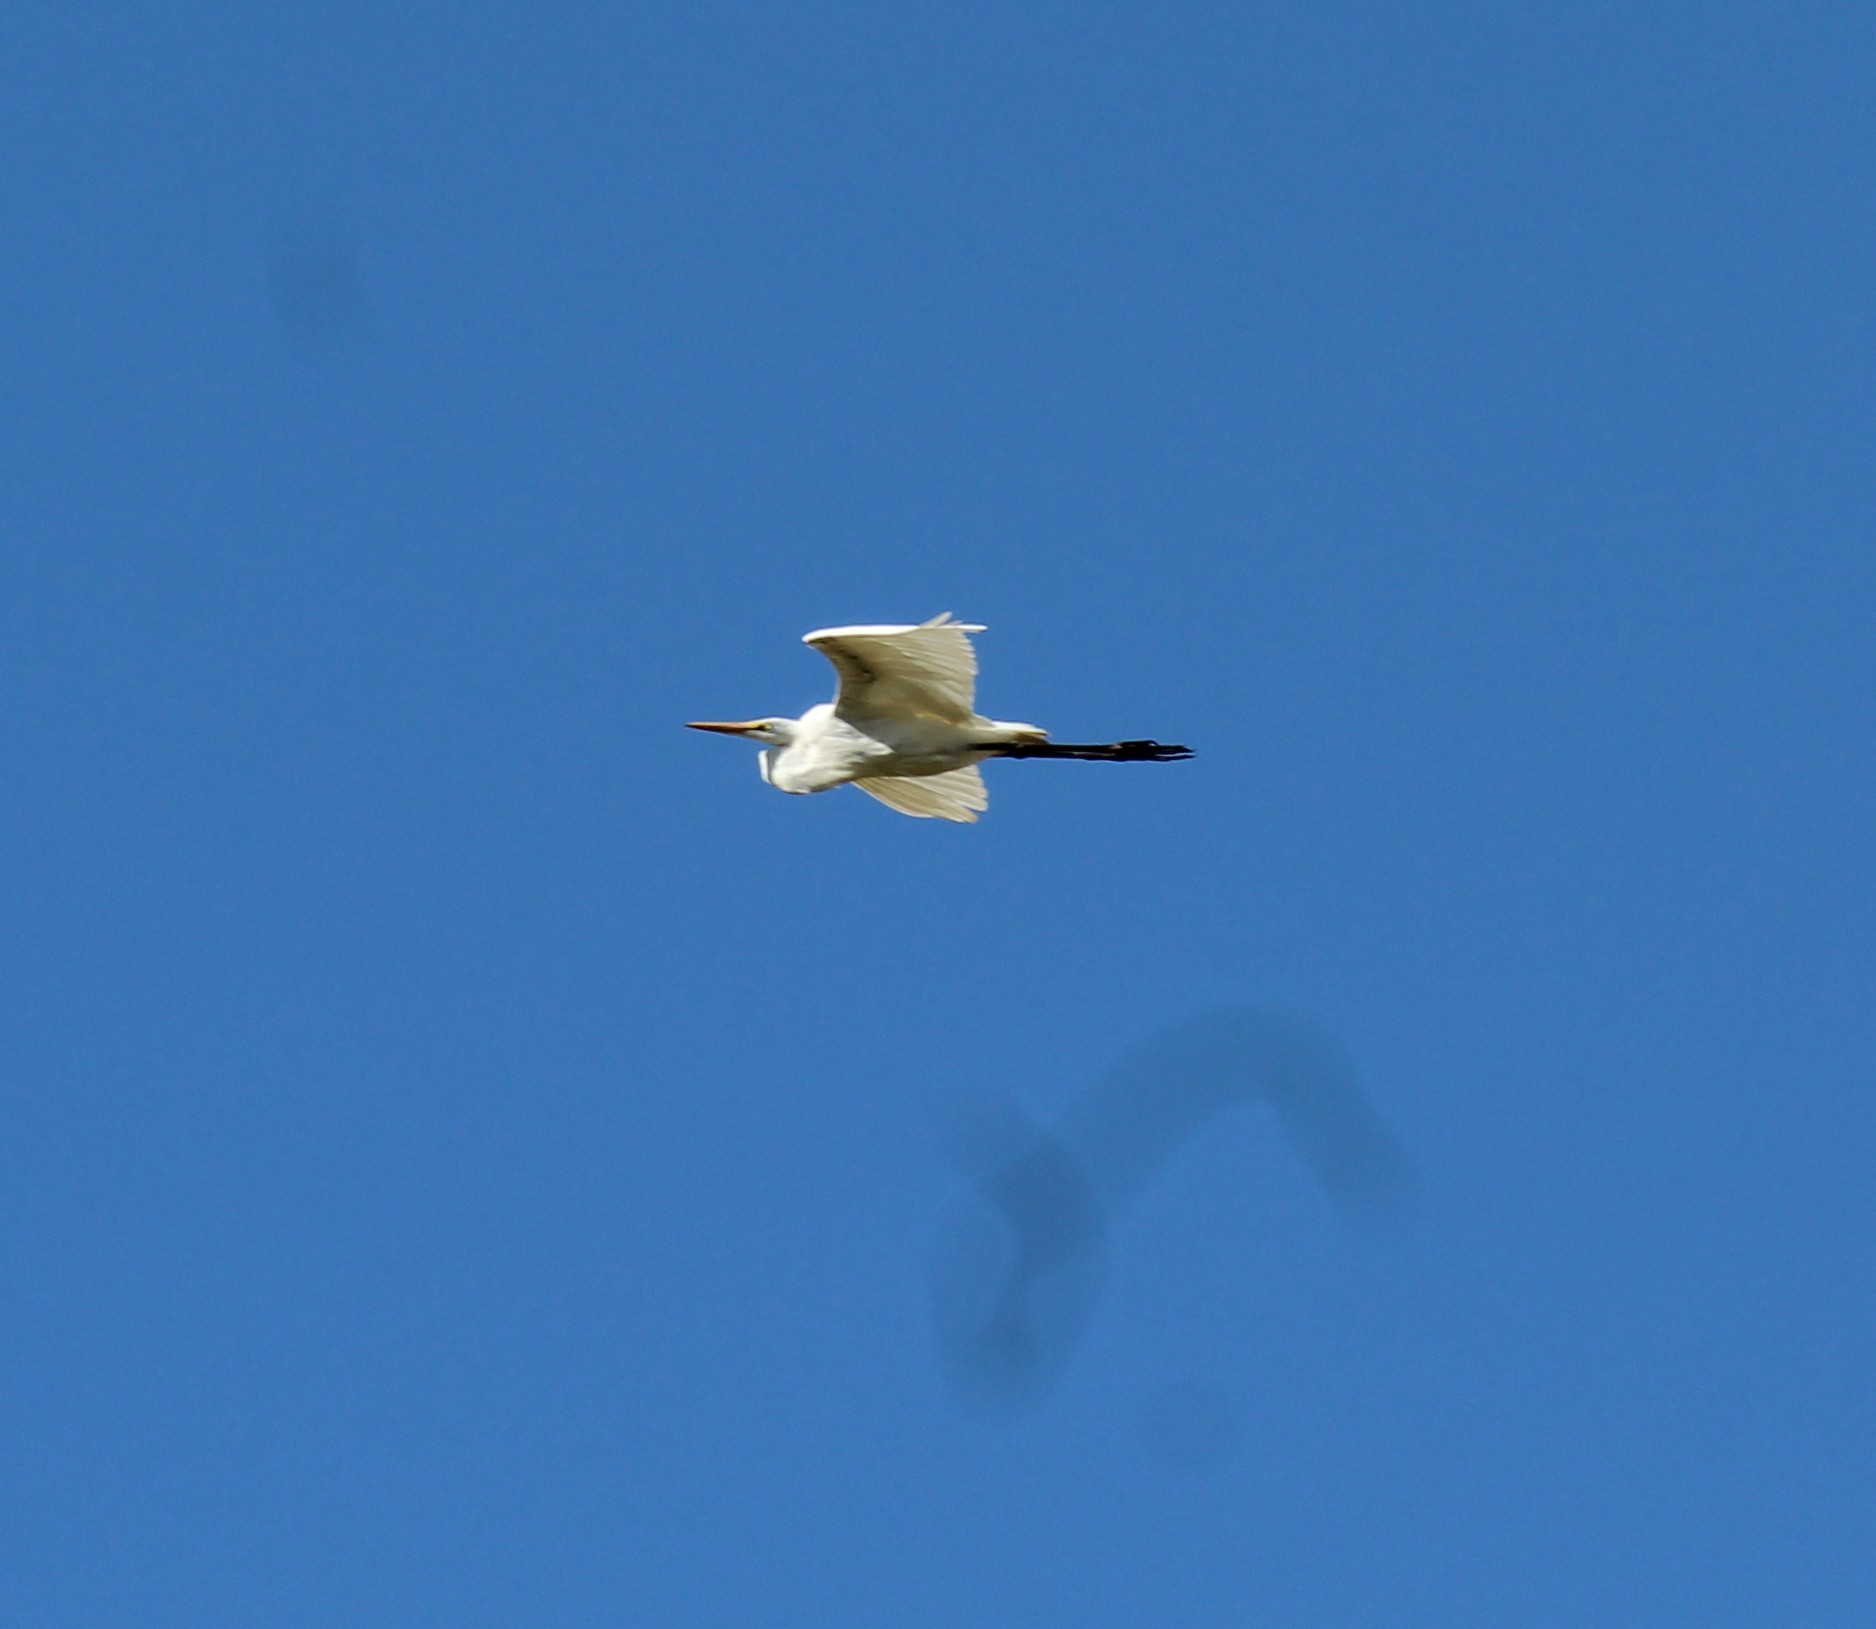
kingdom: Animalia
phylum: Chordata
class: Aves
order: Pelecaniformes
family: Ardeidae
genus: Ardea
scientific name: Ardea alba
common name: Great egret
